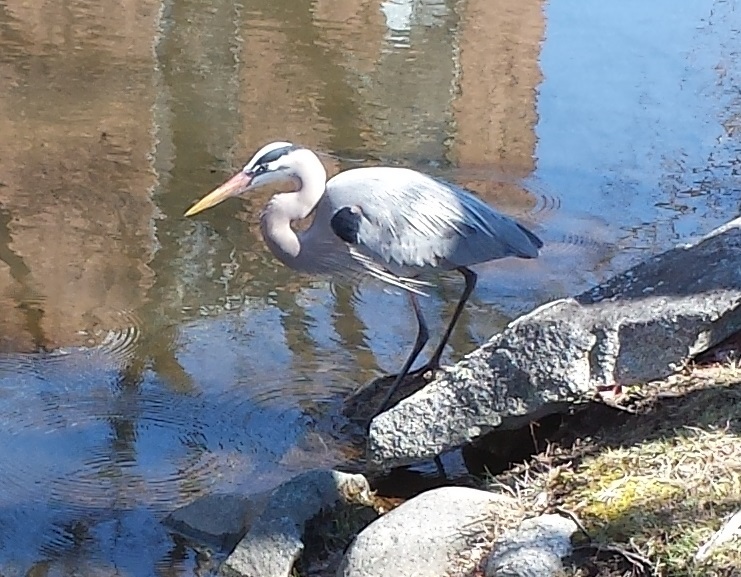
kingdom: Animalia
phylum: Chordata
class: Aves
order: Pelecaniformes
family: Ardeidae
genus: Ardea
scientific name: Ardea herodias
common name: Great blue heron
